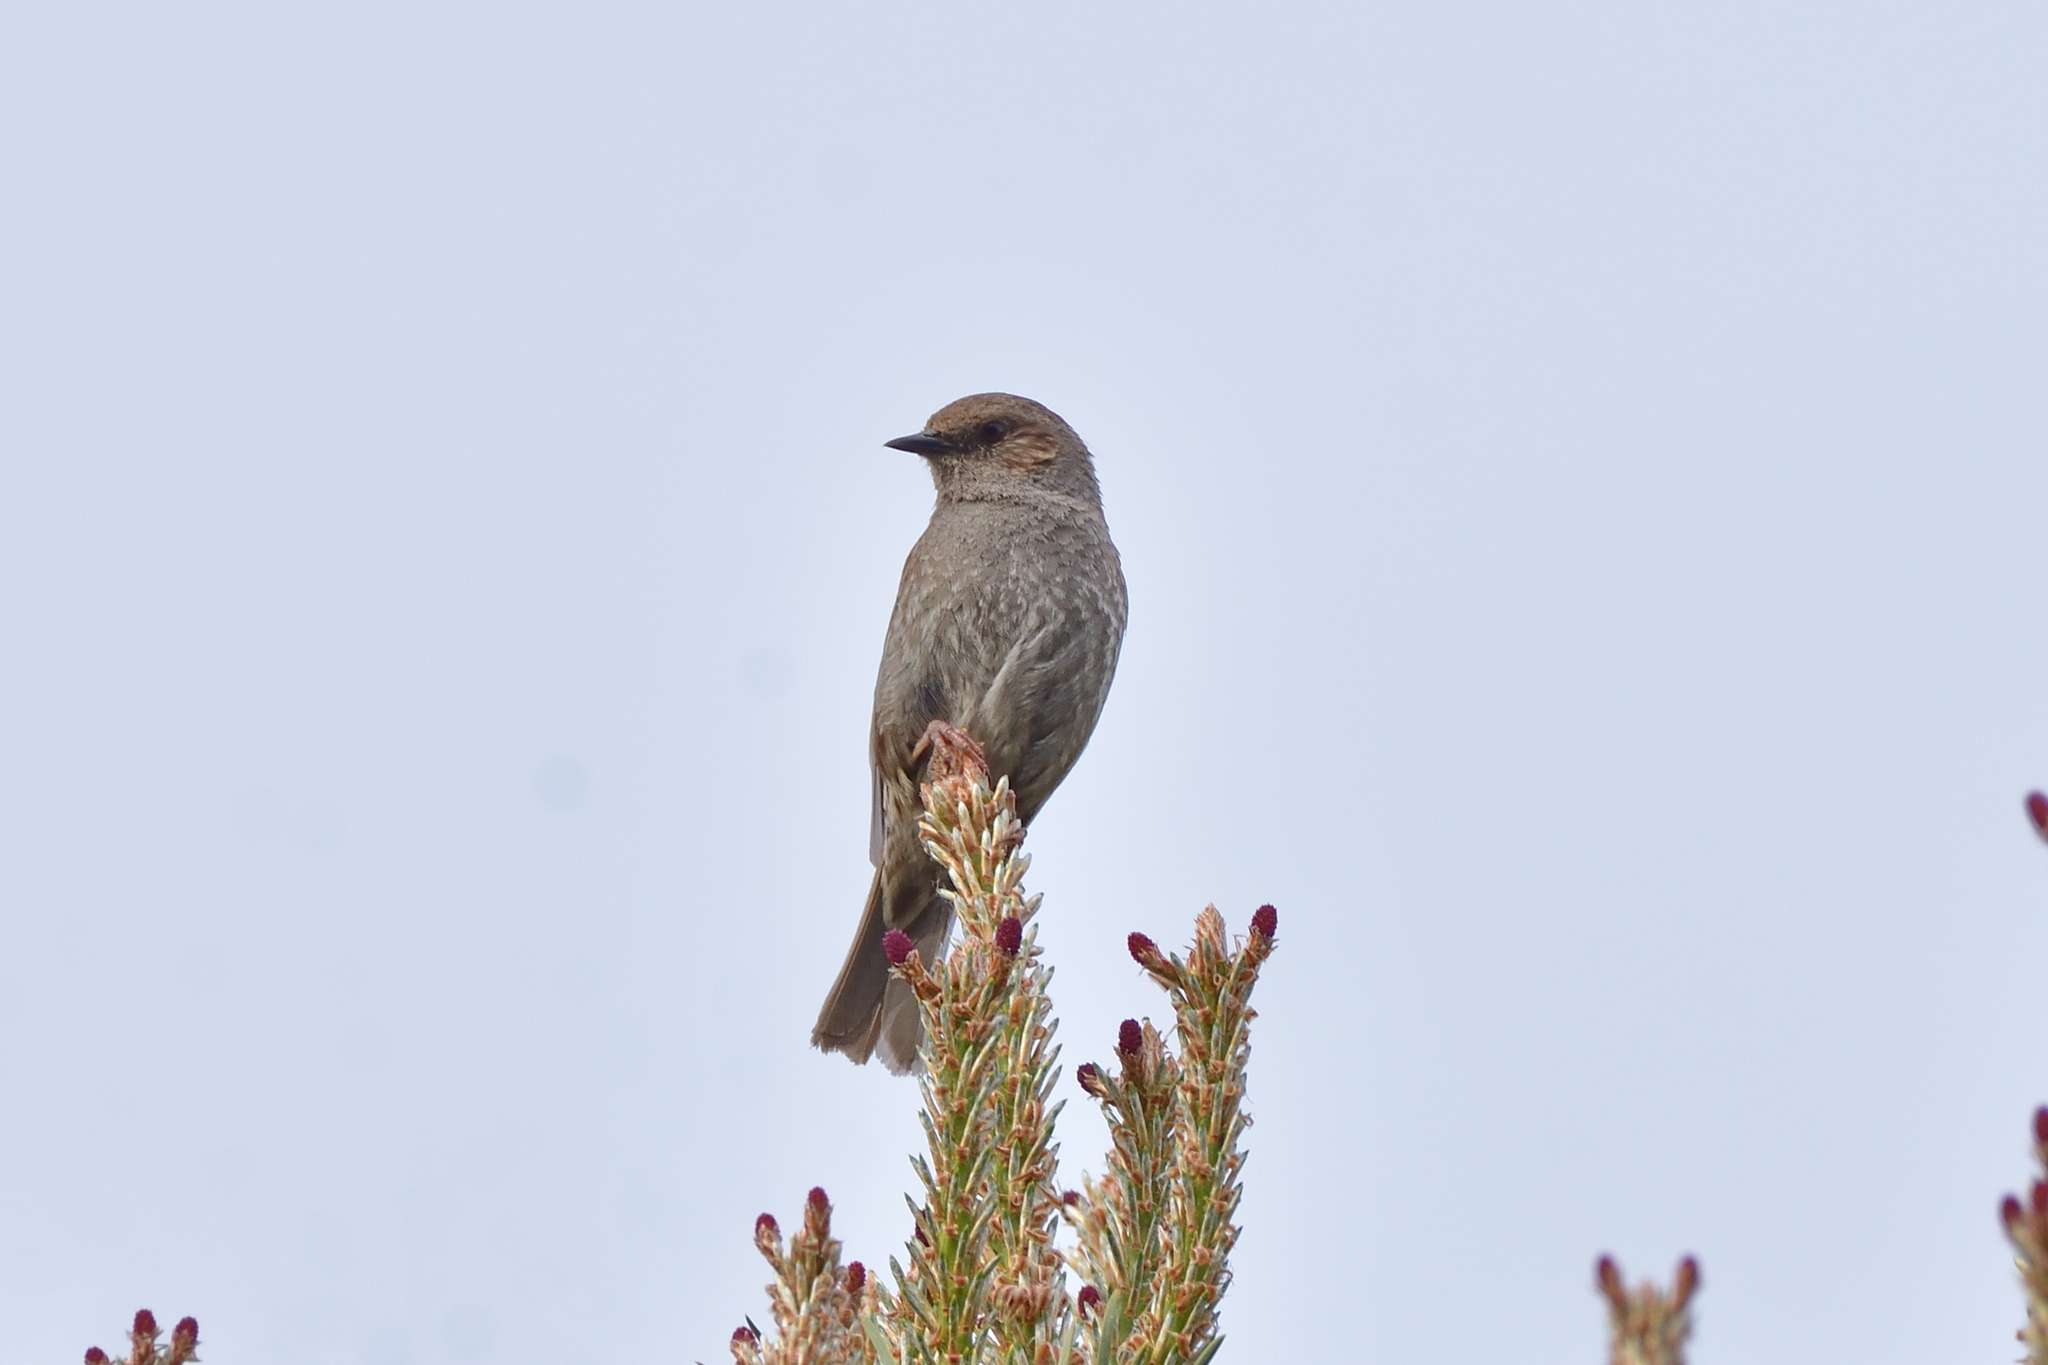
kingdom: Animalia
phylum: Chordata
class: Aves
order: Passeriformes
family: Prunellidae
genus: Prunella
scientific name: Prunella modularis
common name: Dunnock
